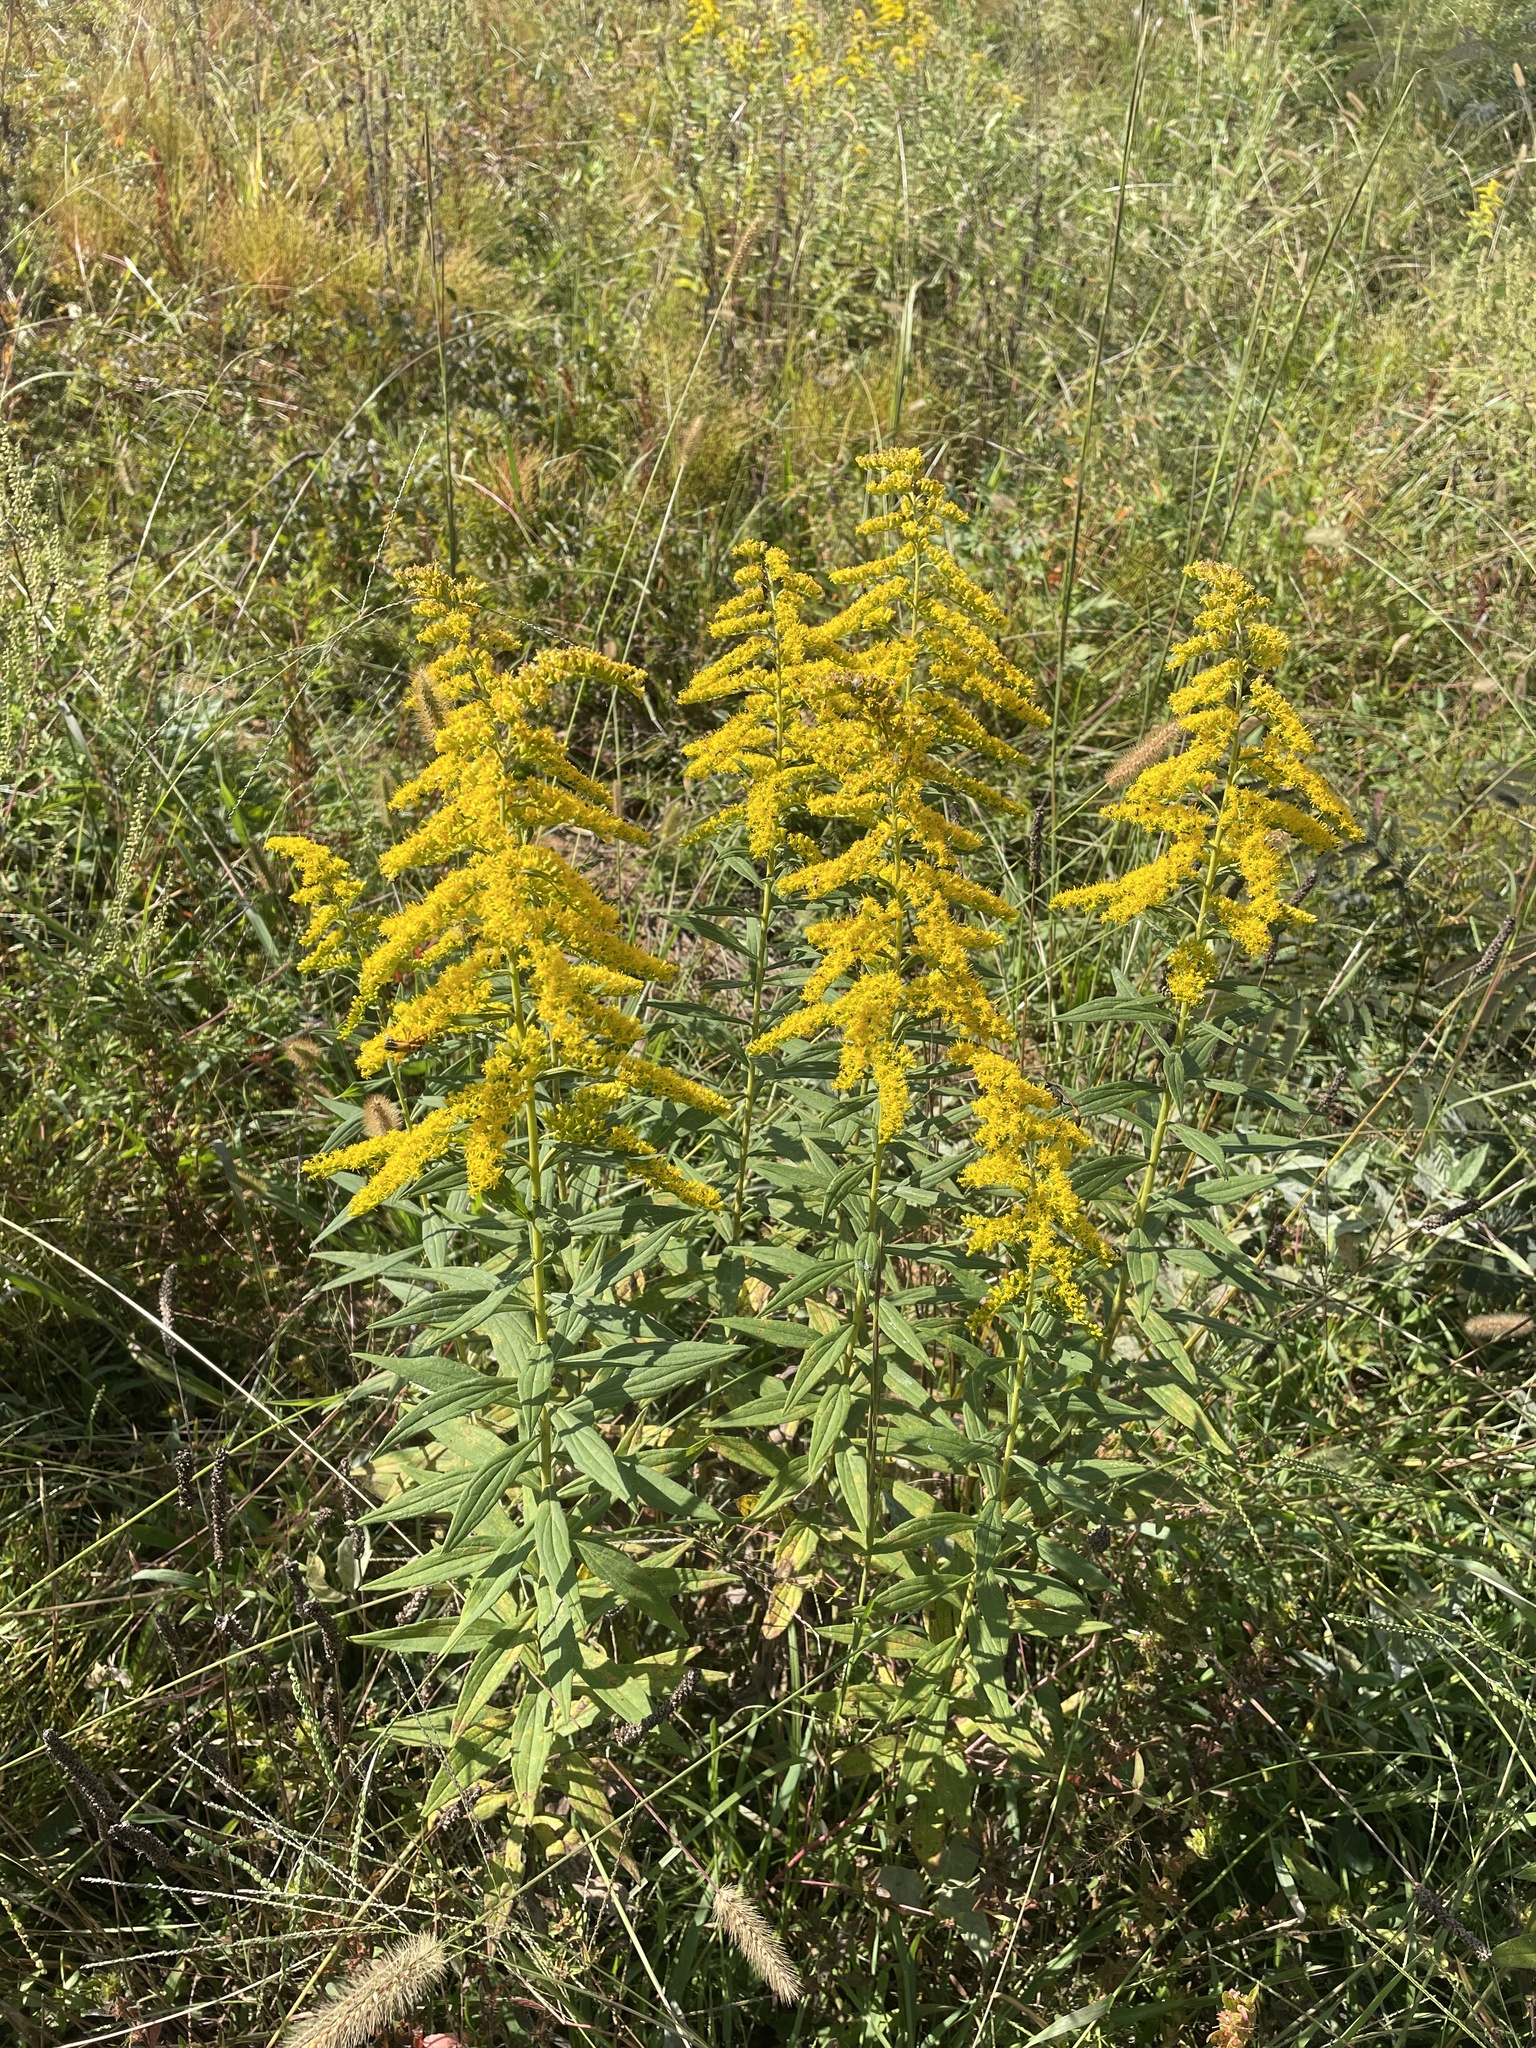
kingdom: Plantae
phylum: Tracheophyta
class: Magnoliopsida
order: Asterales
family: Asteraceae
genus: Solidago
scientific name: Solidago altissima
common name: Late goldenrod
